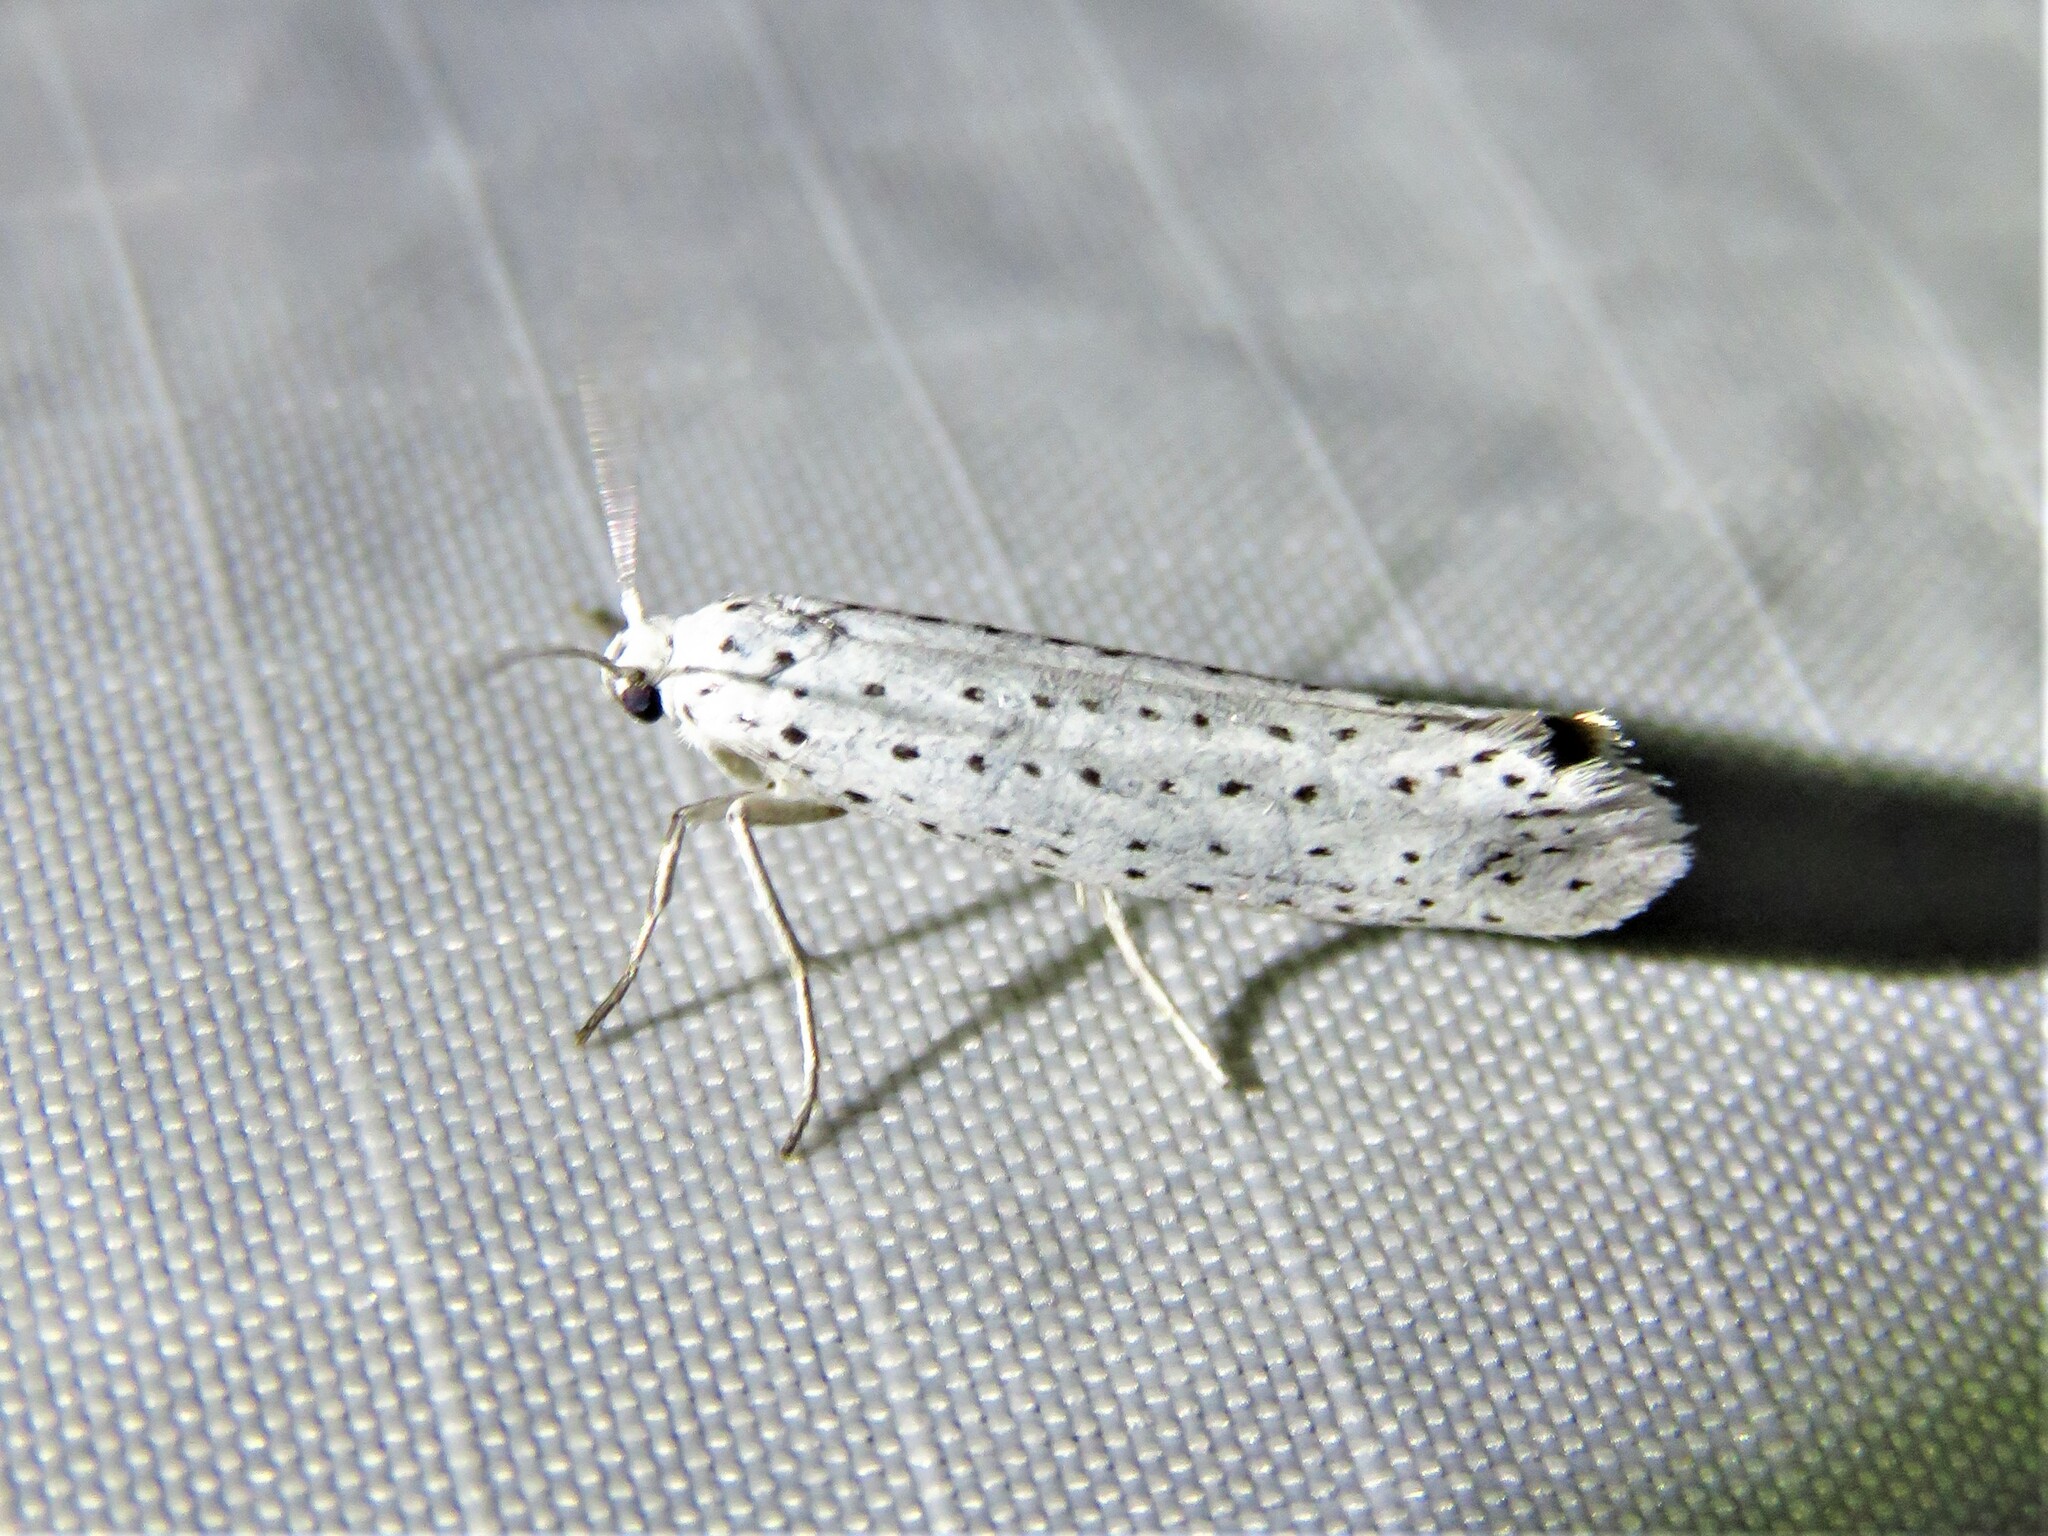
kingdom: Animalia
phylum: Arthropoda
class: Insecta
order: Lepidoptera
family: Yponomeutidae
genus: Yponomeuta
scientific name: Yponomeuta evonymella
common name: Bird-cherry ermine
